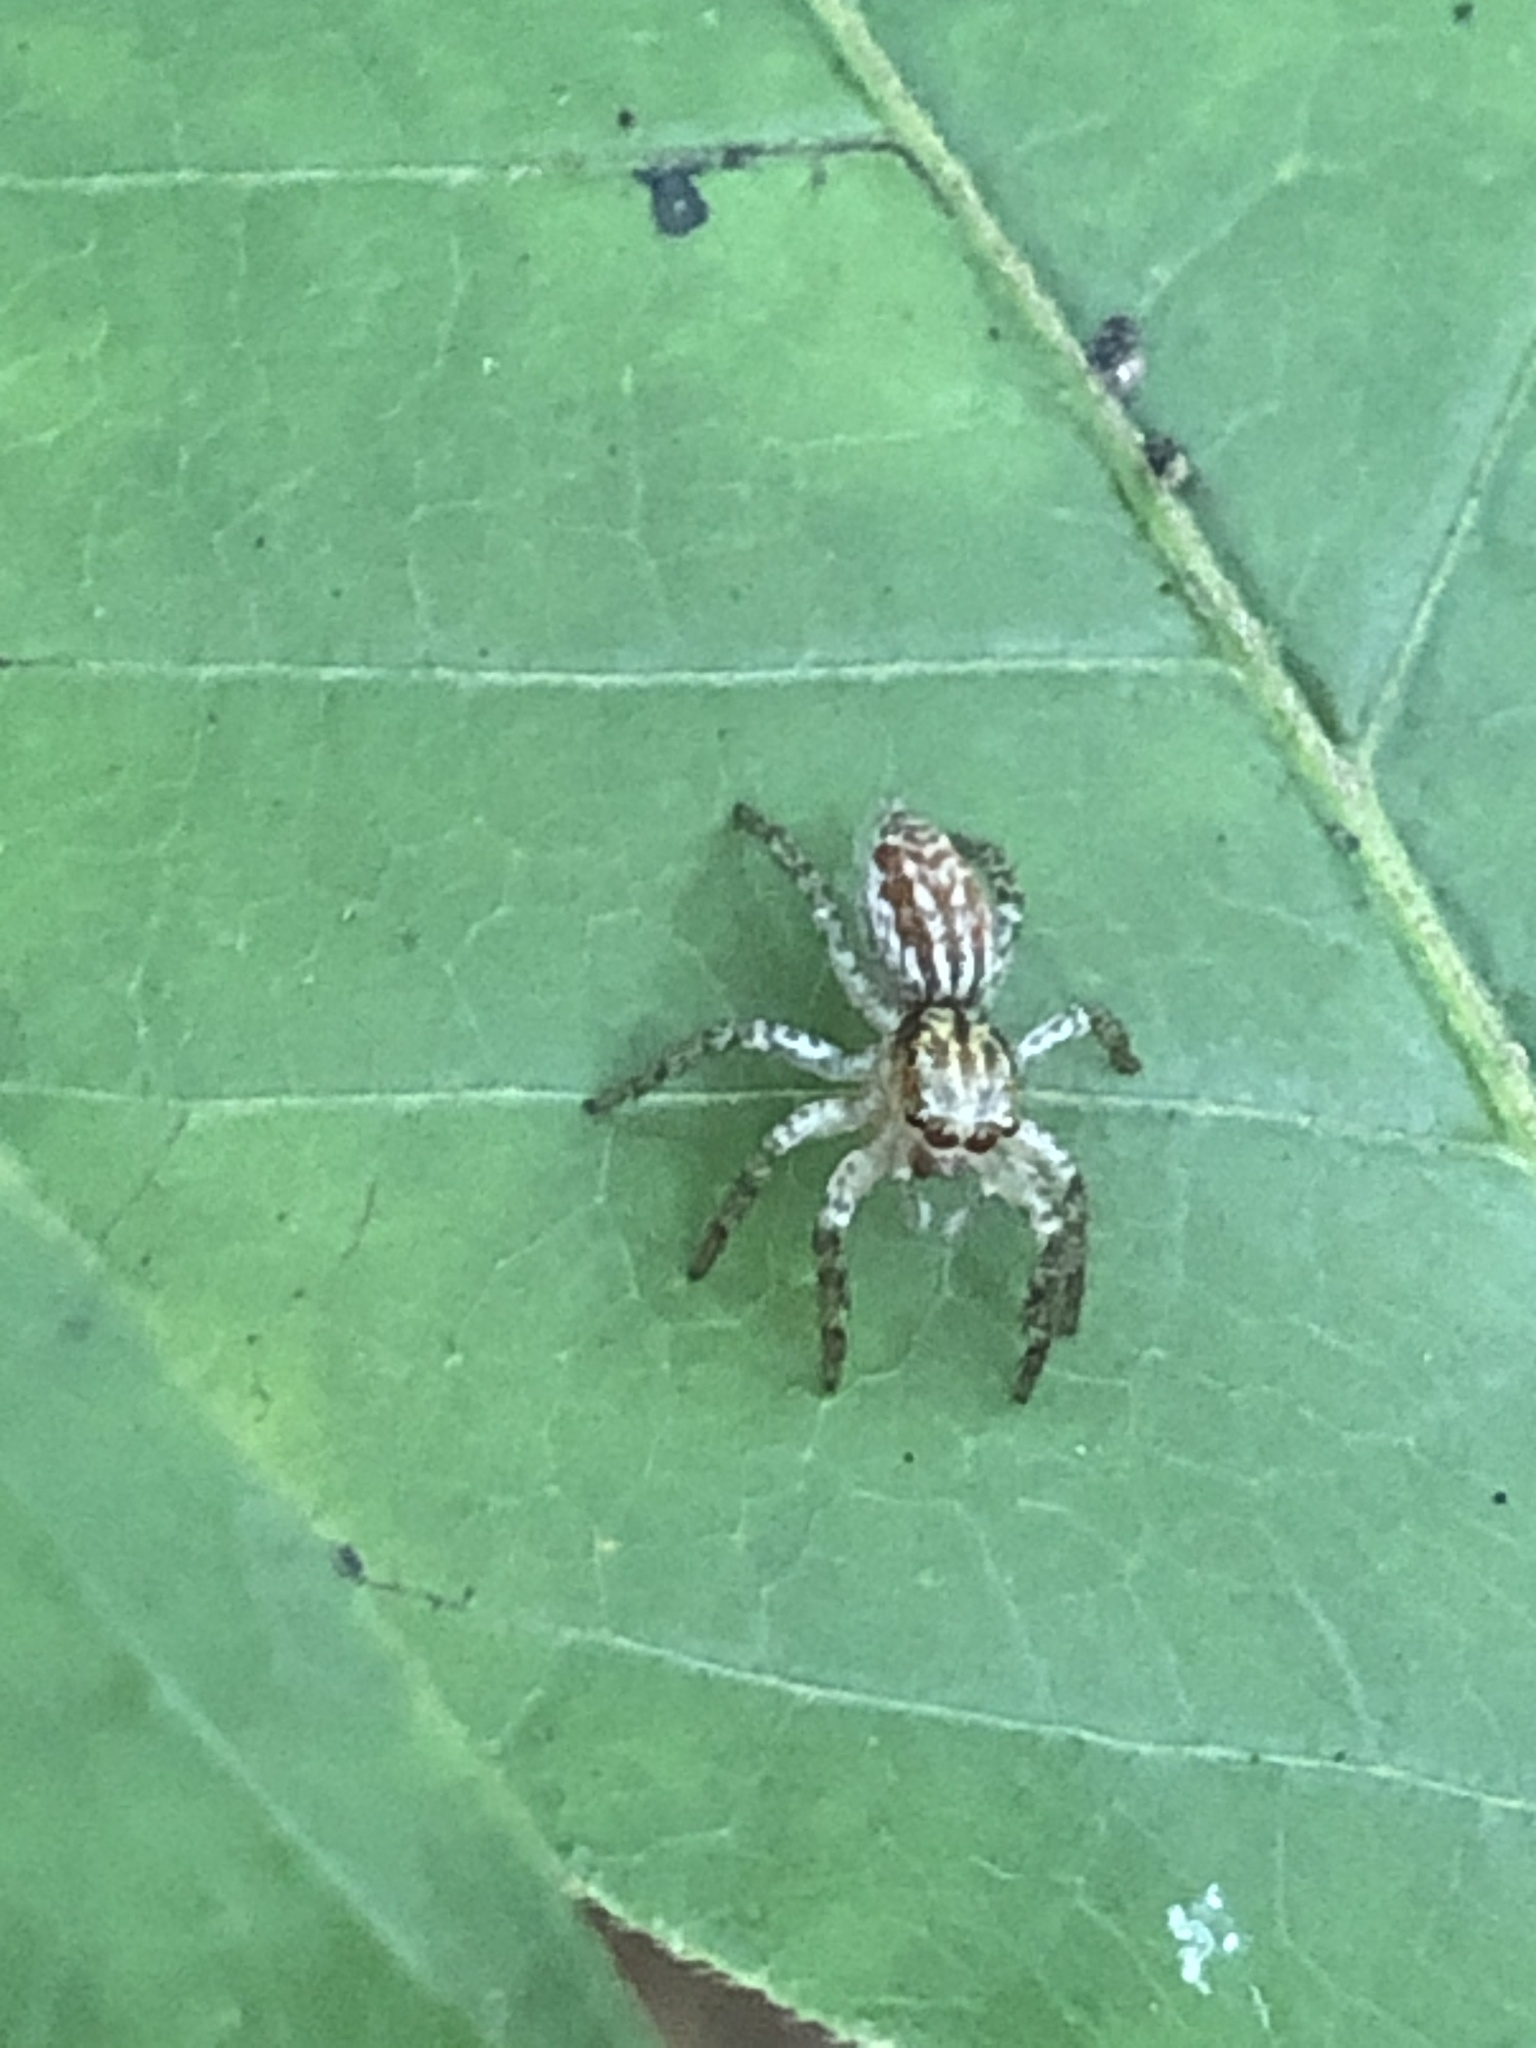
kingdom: Animalia
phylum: Arthropoda
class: Arachnida
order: Araneae
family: Salticidae
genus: Maevia
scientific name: Maevia inclemens
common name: Dimorphic jumper
